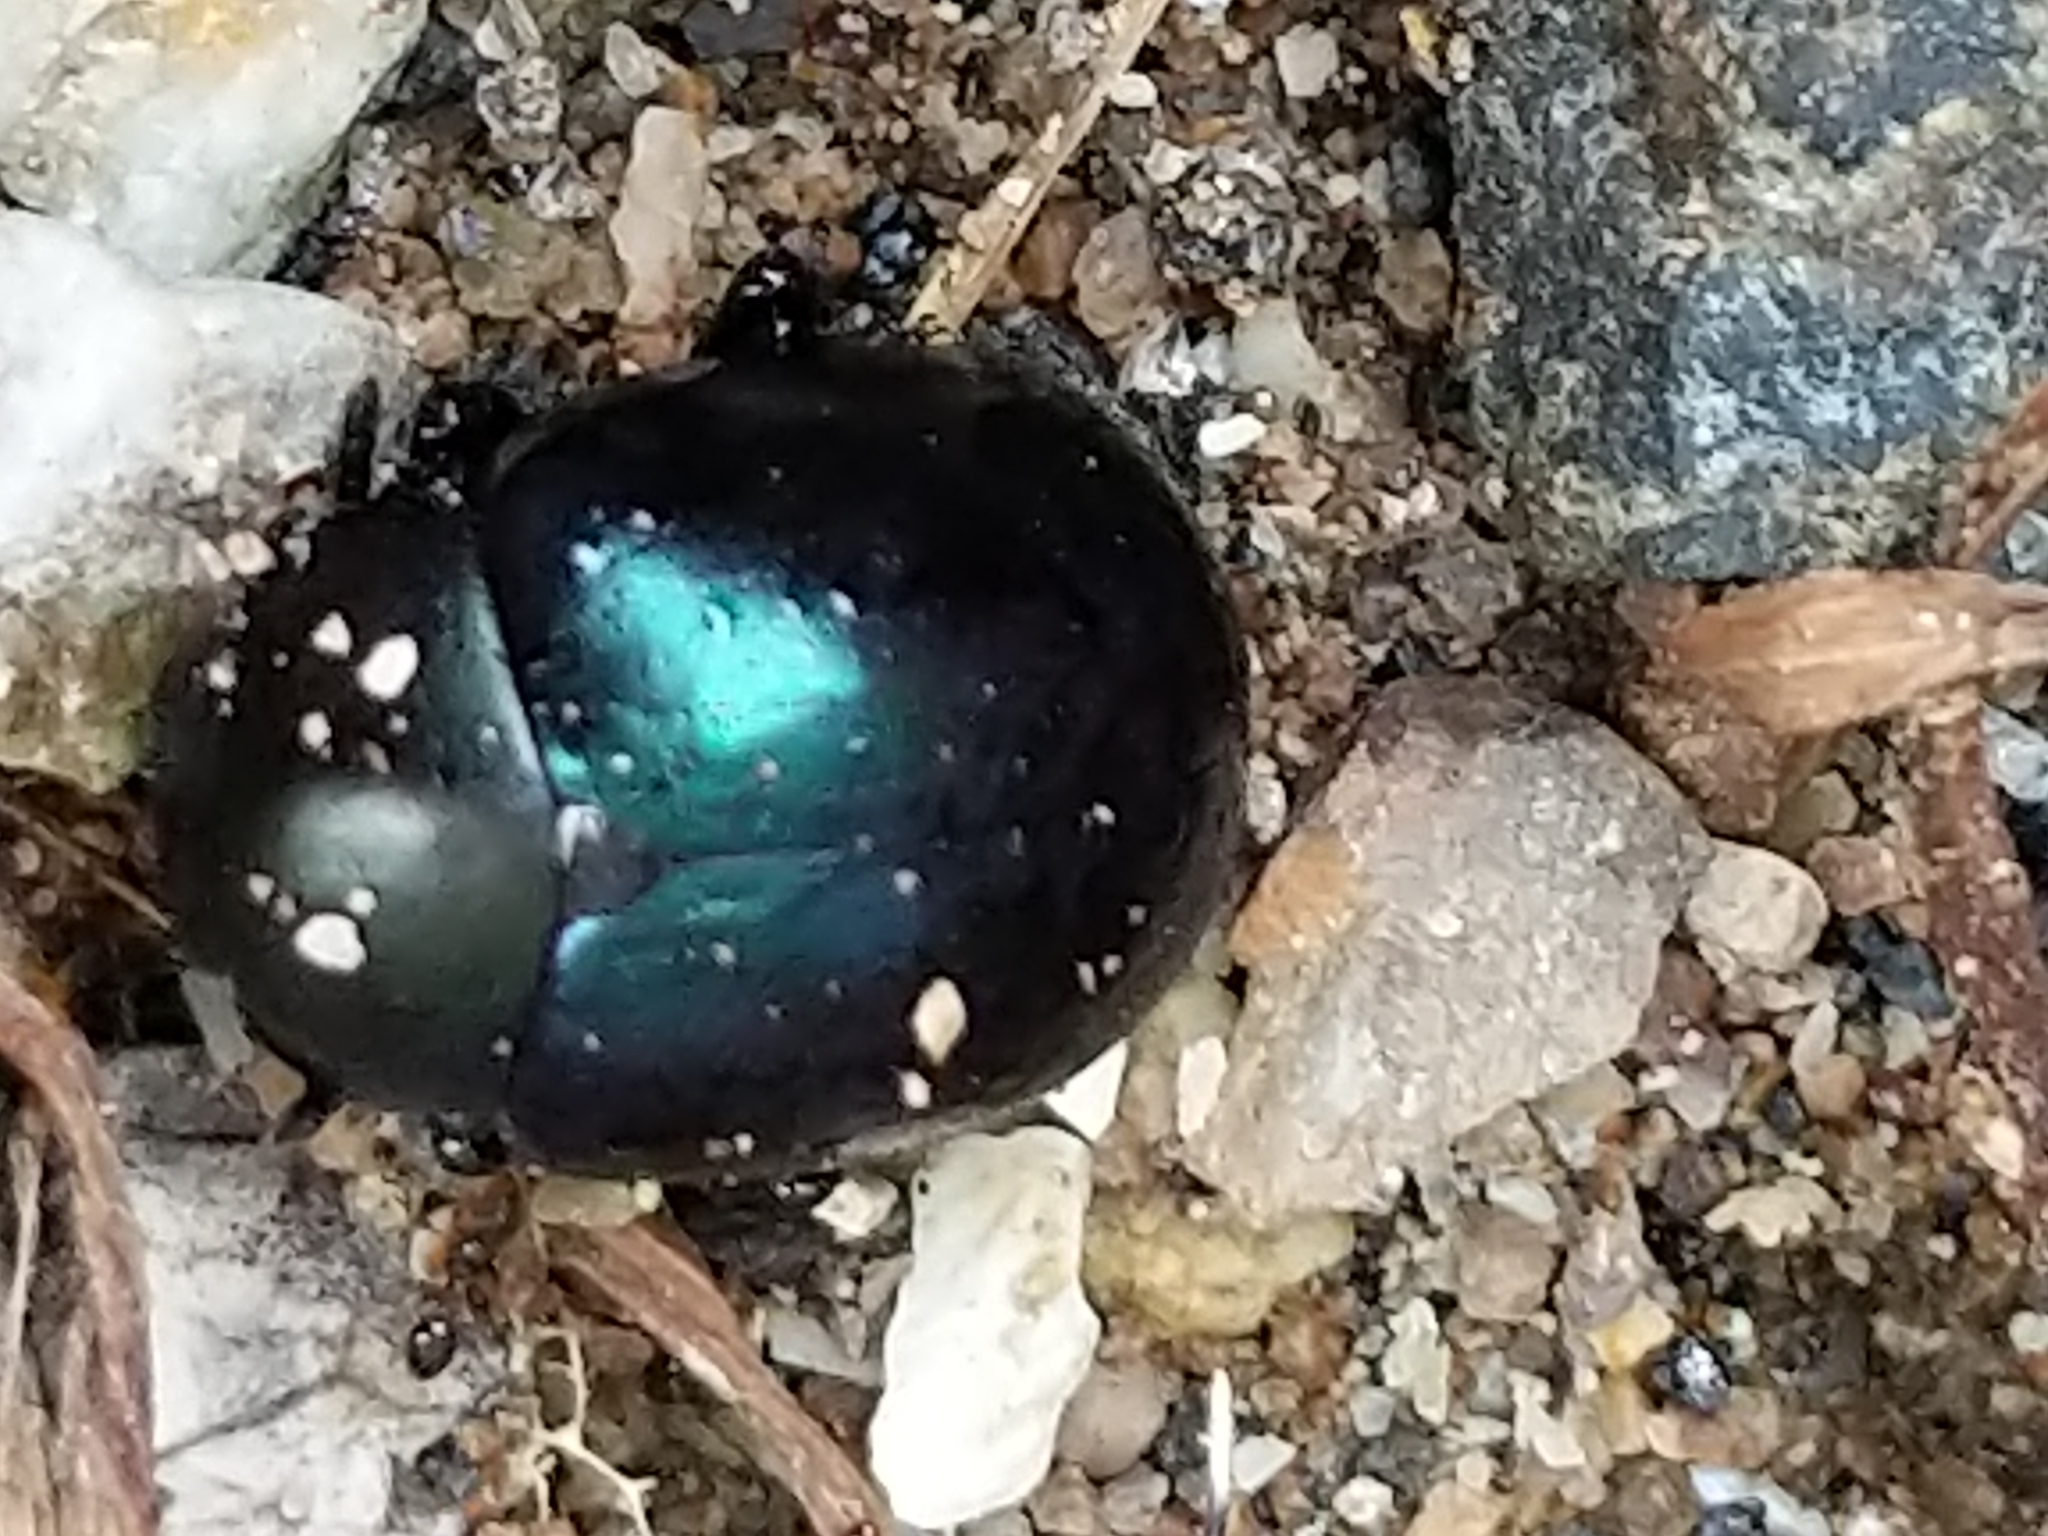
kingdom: Animalia
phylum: Arthropoda
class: Insecta
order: Coleoptera
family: Chrysomelidae
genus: Leptinotarsa
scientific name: Leptinotarsa haldemani
